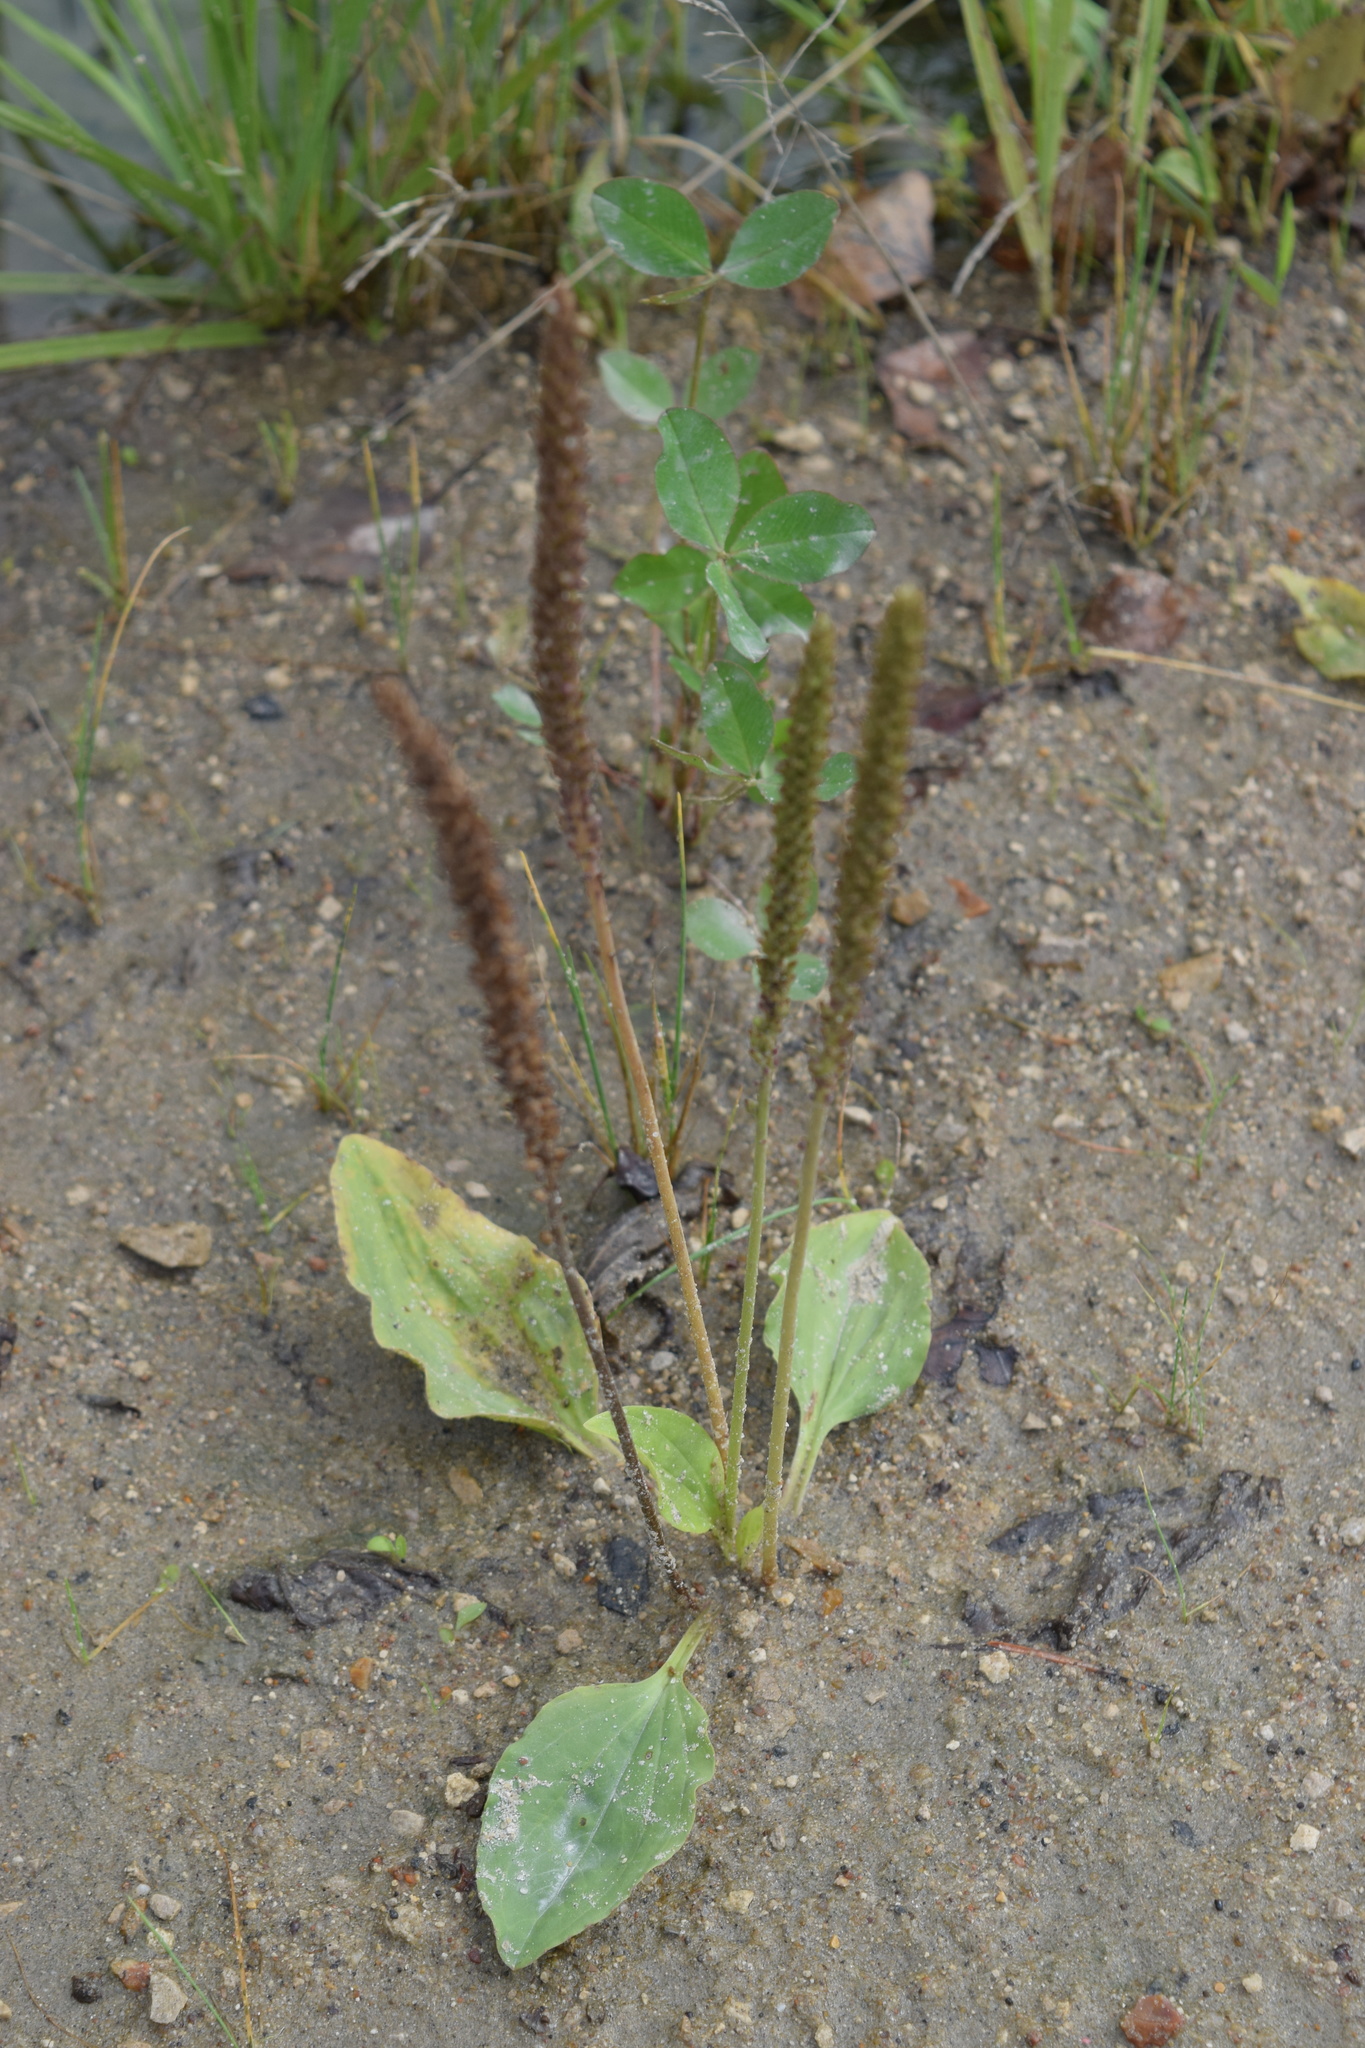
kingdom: Plantae
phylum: Tracheophyta
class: Magnoliopsida
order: Lamiales
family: Plantaginaceae
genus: Plantago
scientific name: Plantago major
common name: Common plantain
